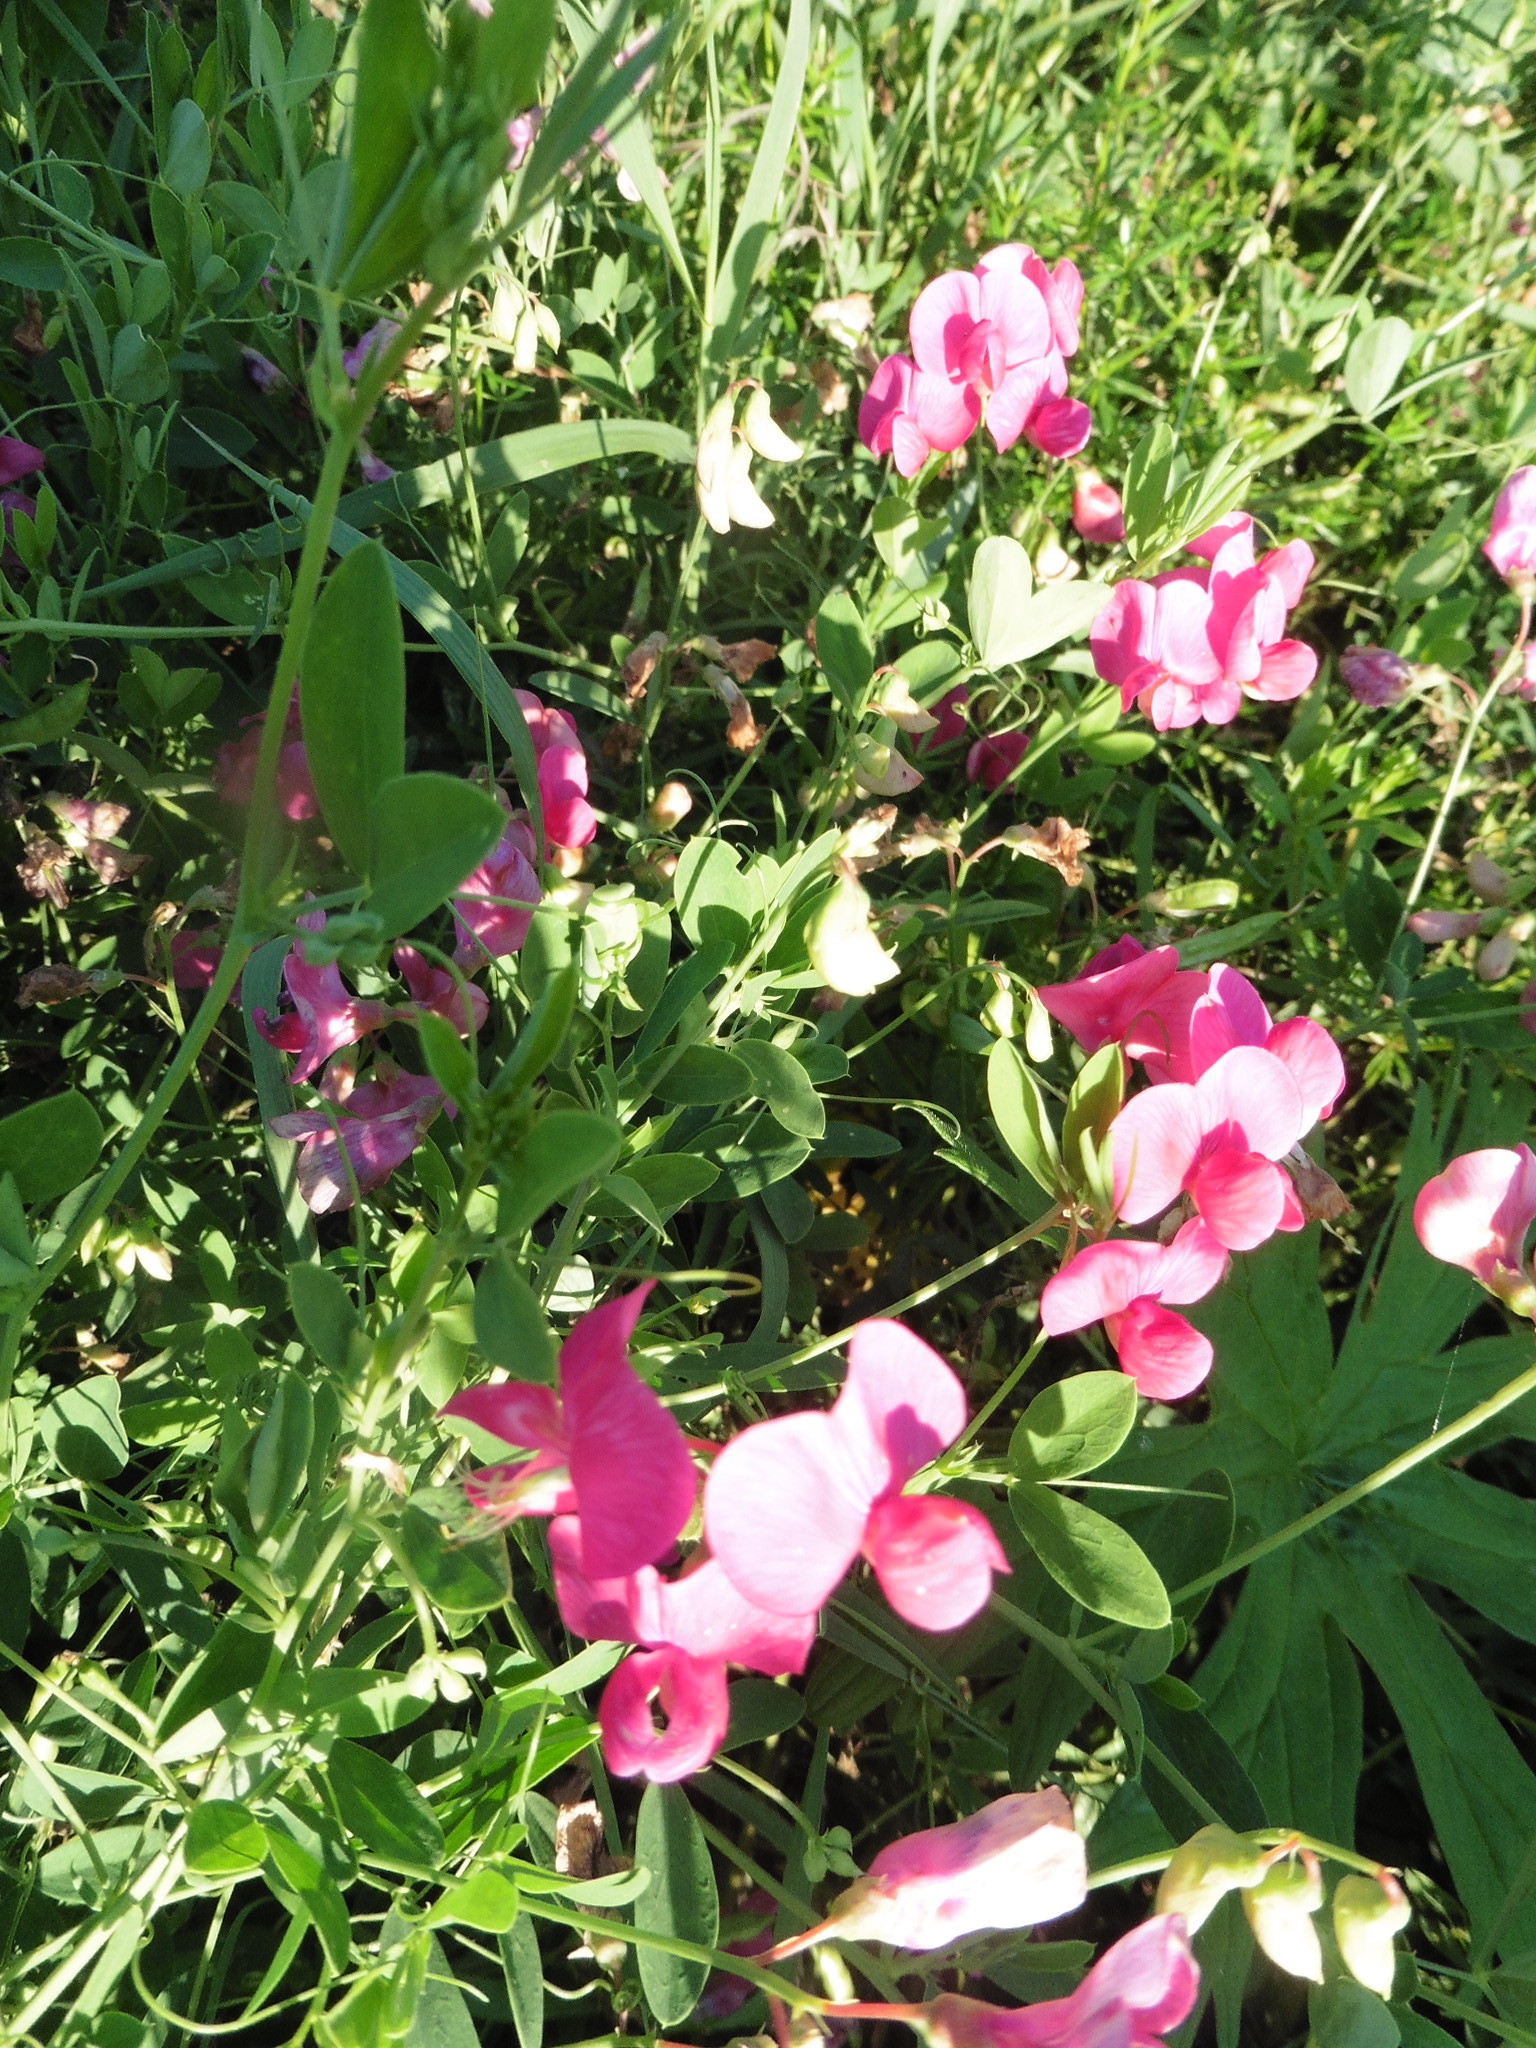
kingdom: Plantae
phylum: Tracheophyta
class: Magnoliopsida
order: Fabales
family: Fabaceae
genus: Lathyrus
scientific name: Lathyrus tuberosus
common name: Tuberous pea
